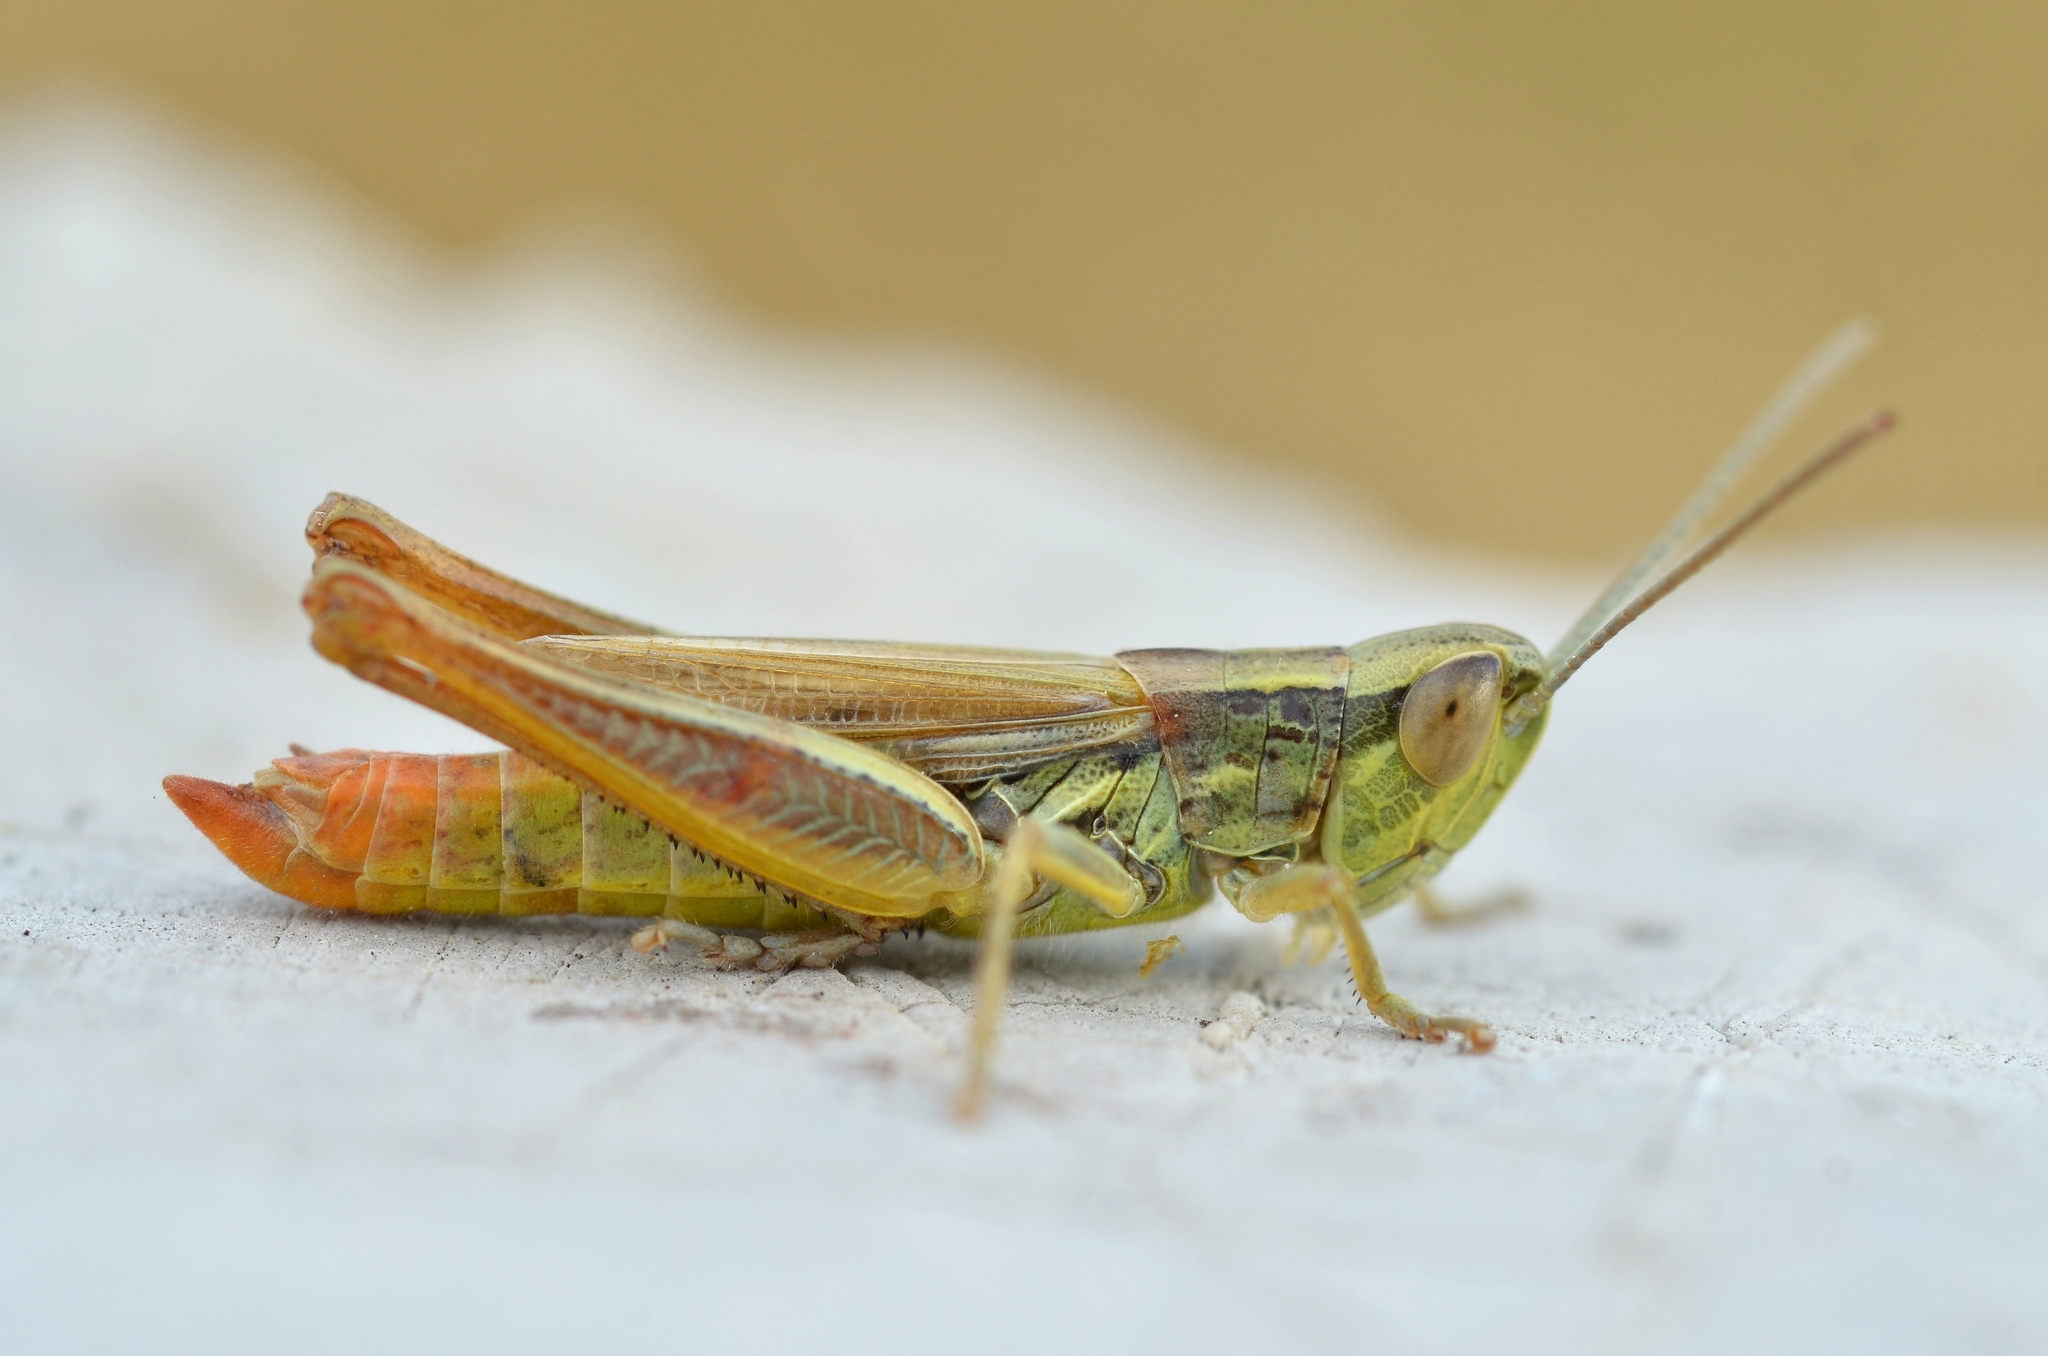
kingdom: Animalia
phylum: Arthropoda
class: Insecta
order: Orthoptera
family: Acrididae
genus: Euchorthippus
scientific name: Euchorthippus declivus
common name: Common straw grasshopper
